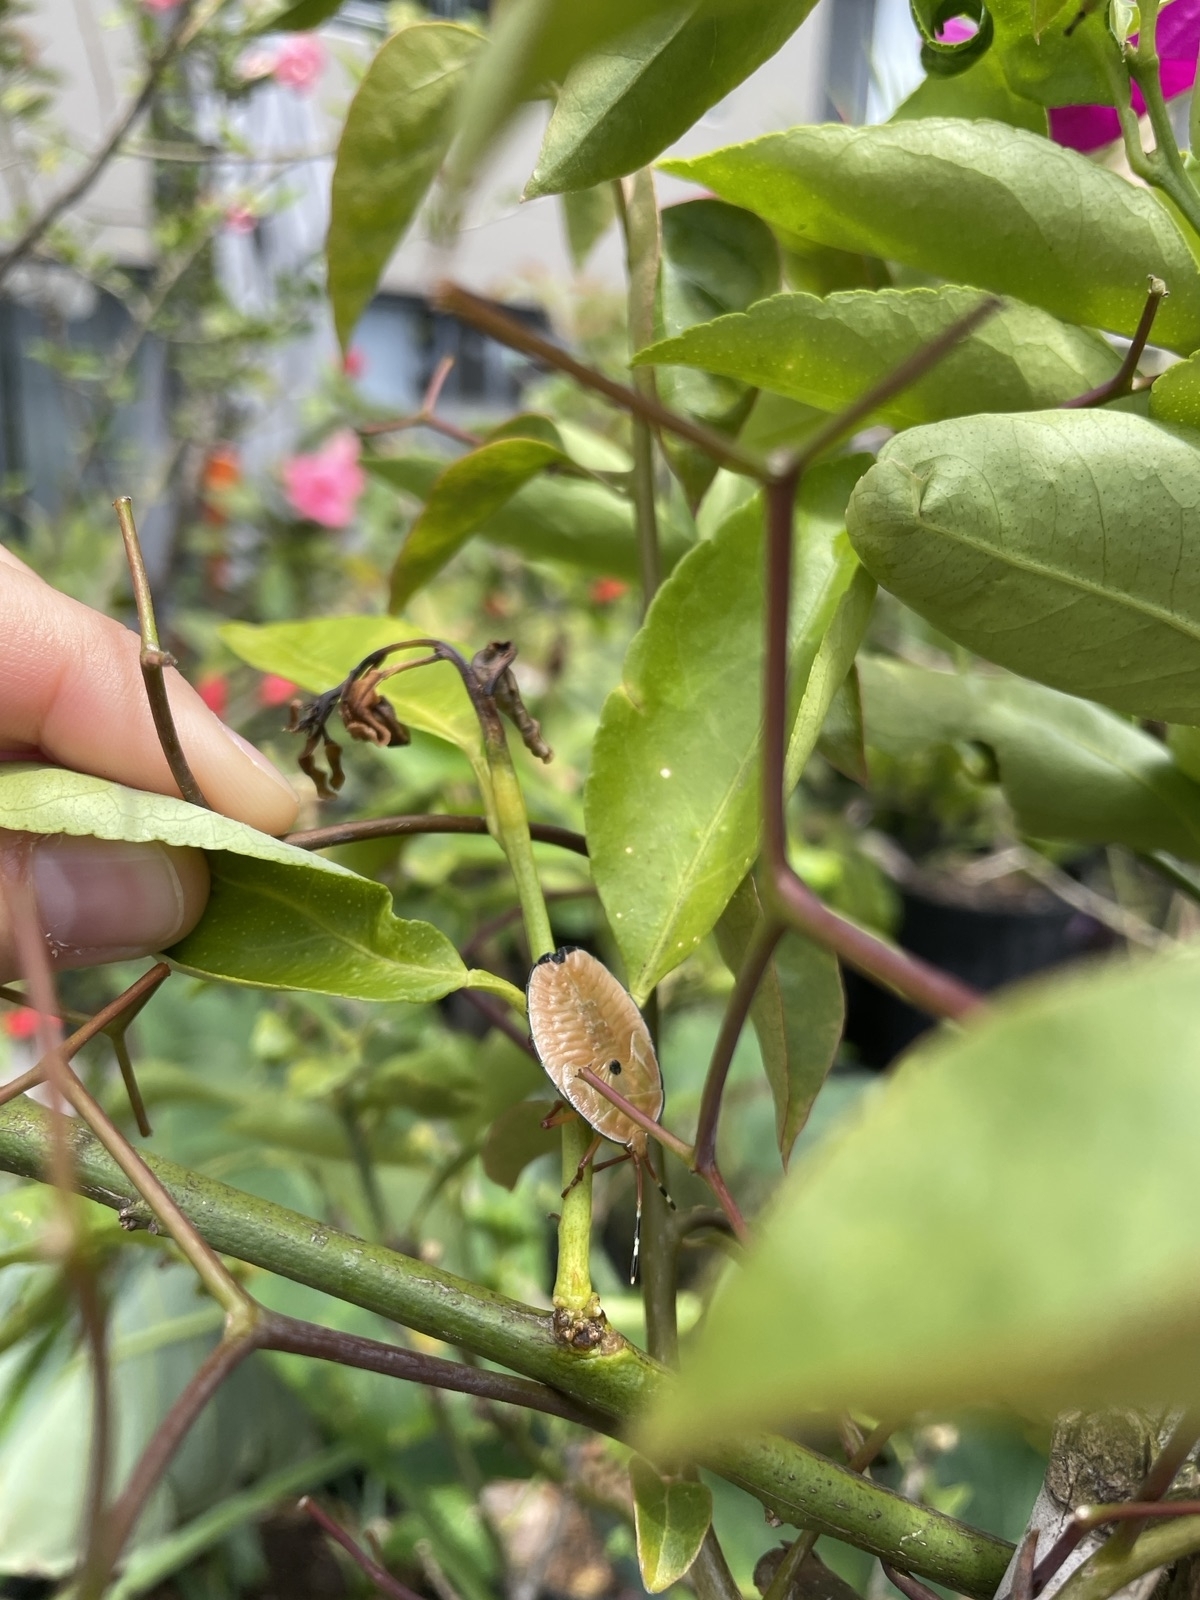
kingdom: Animalia
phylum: Arthropoda
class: Insecta
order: Hemiptera
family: Tessaratomidae
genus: Musgraveia
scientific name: Musgraveia sulciventris
